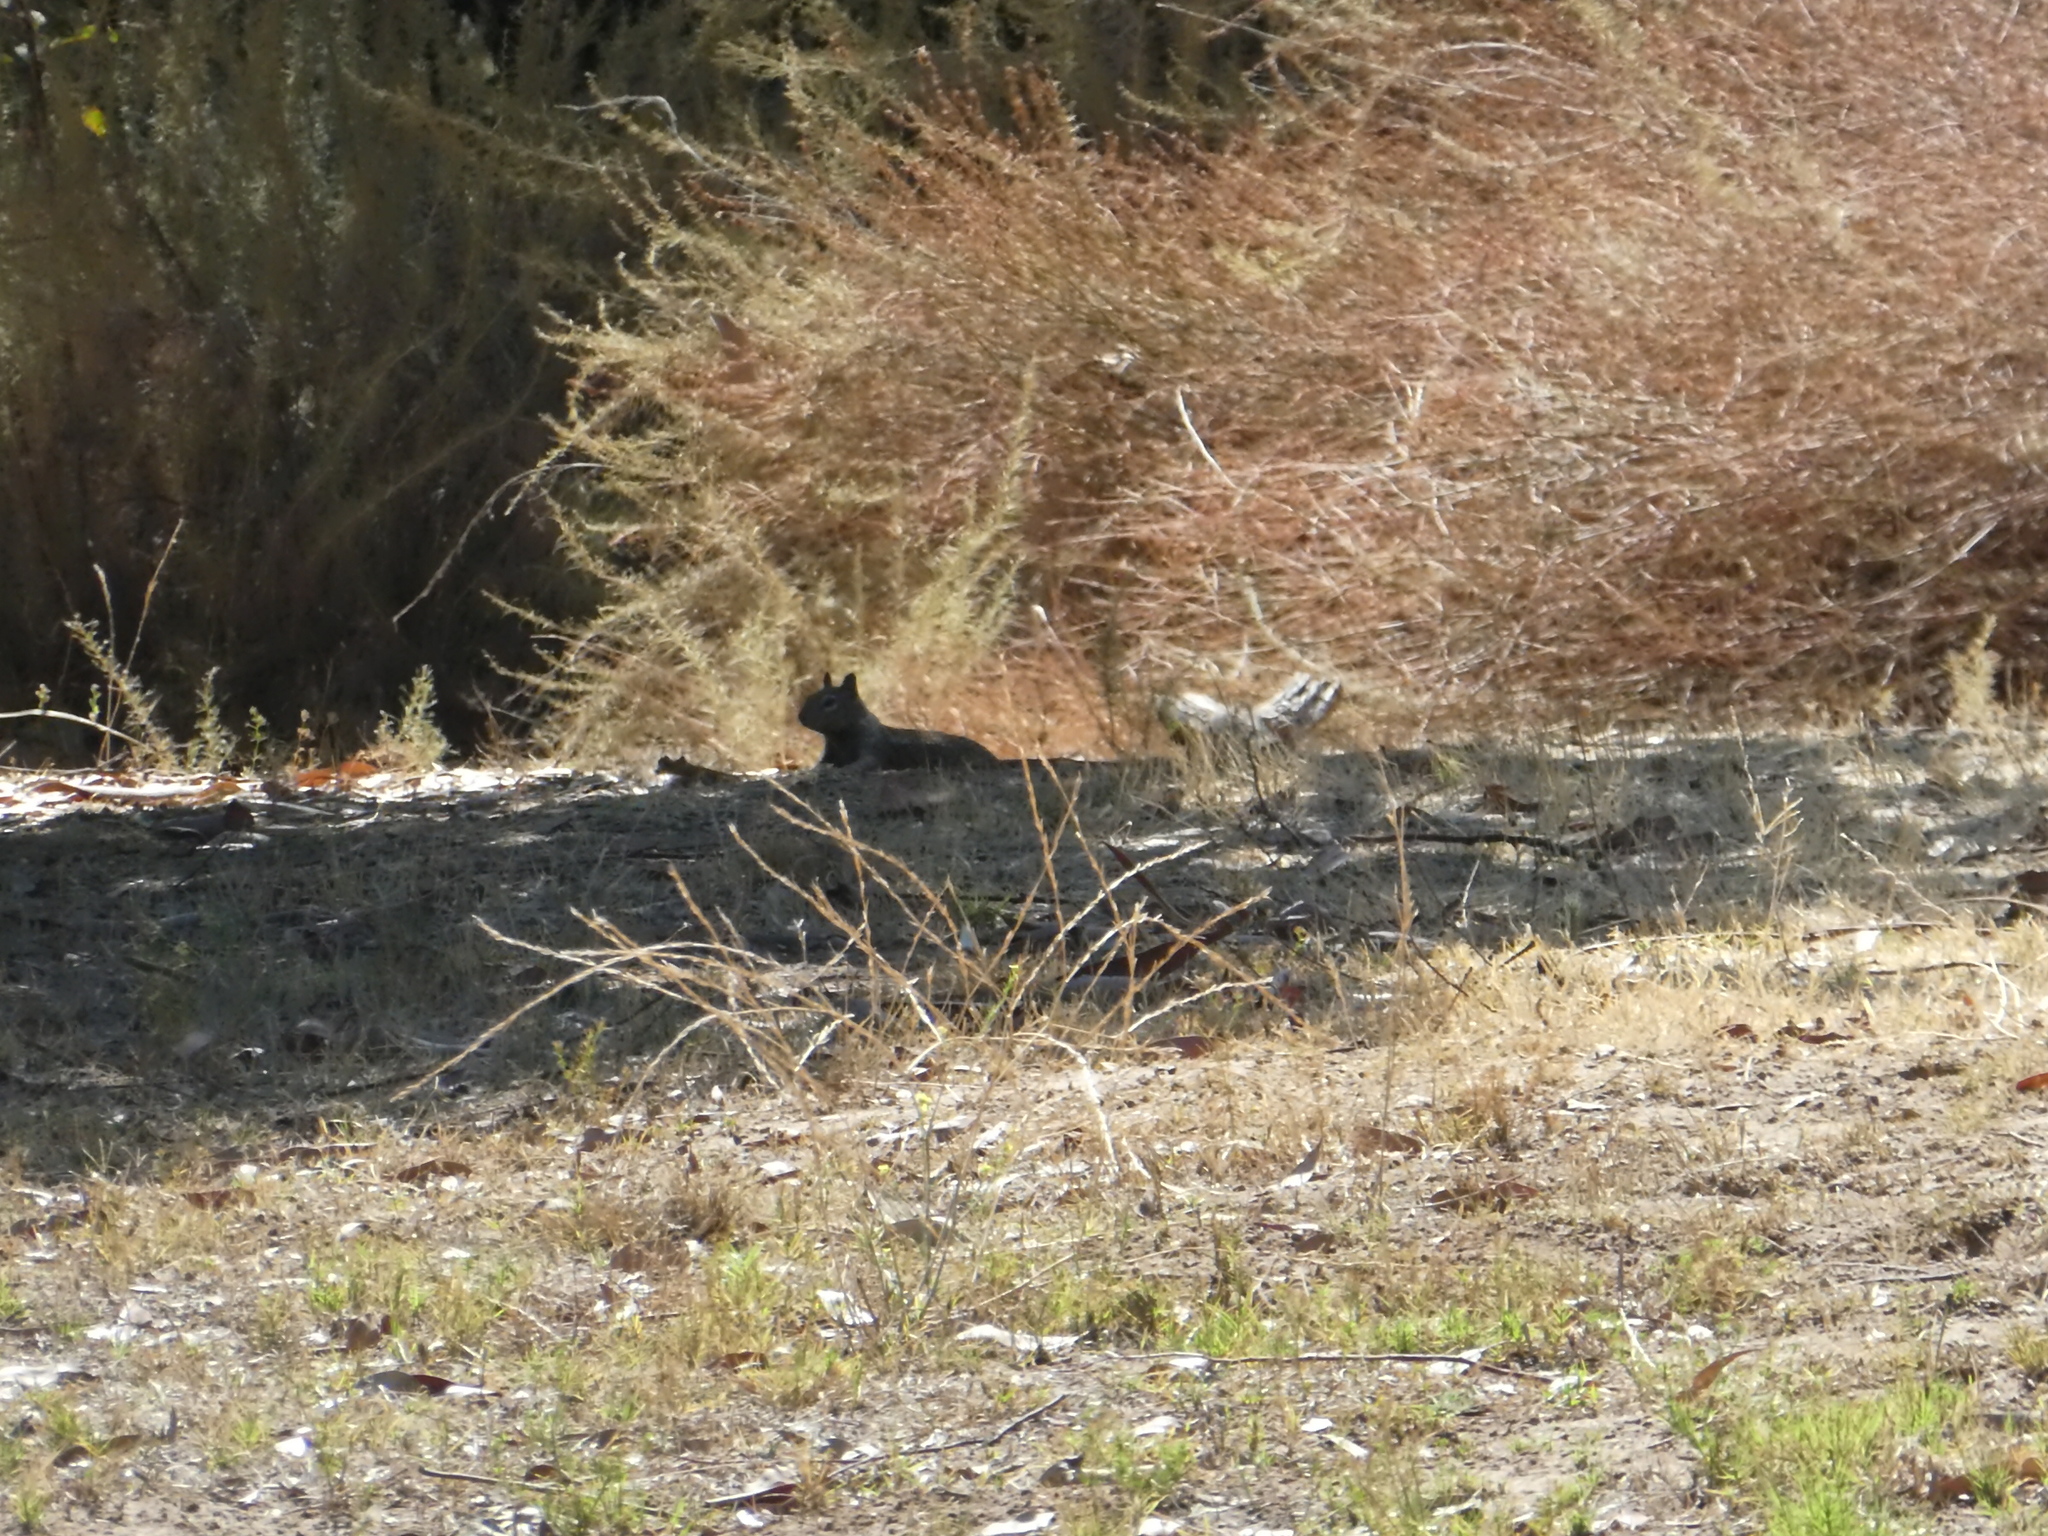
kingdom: Animalia
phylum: Chordata
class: Mammalia
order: Rodentia
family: Sciuridae
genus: Otospermophilus
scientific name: Otospermophilus beecheyi
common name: California ground squirrel
